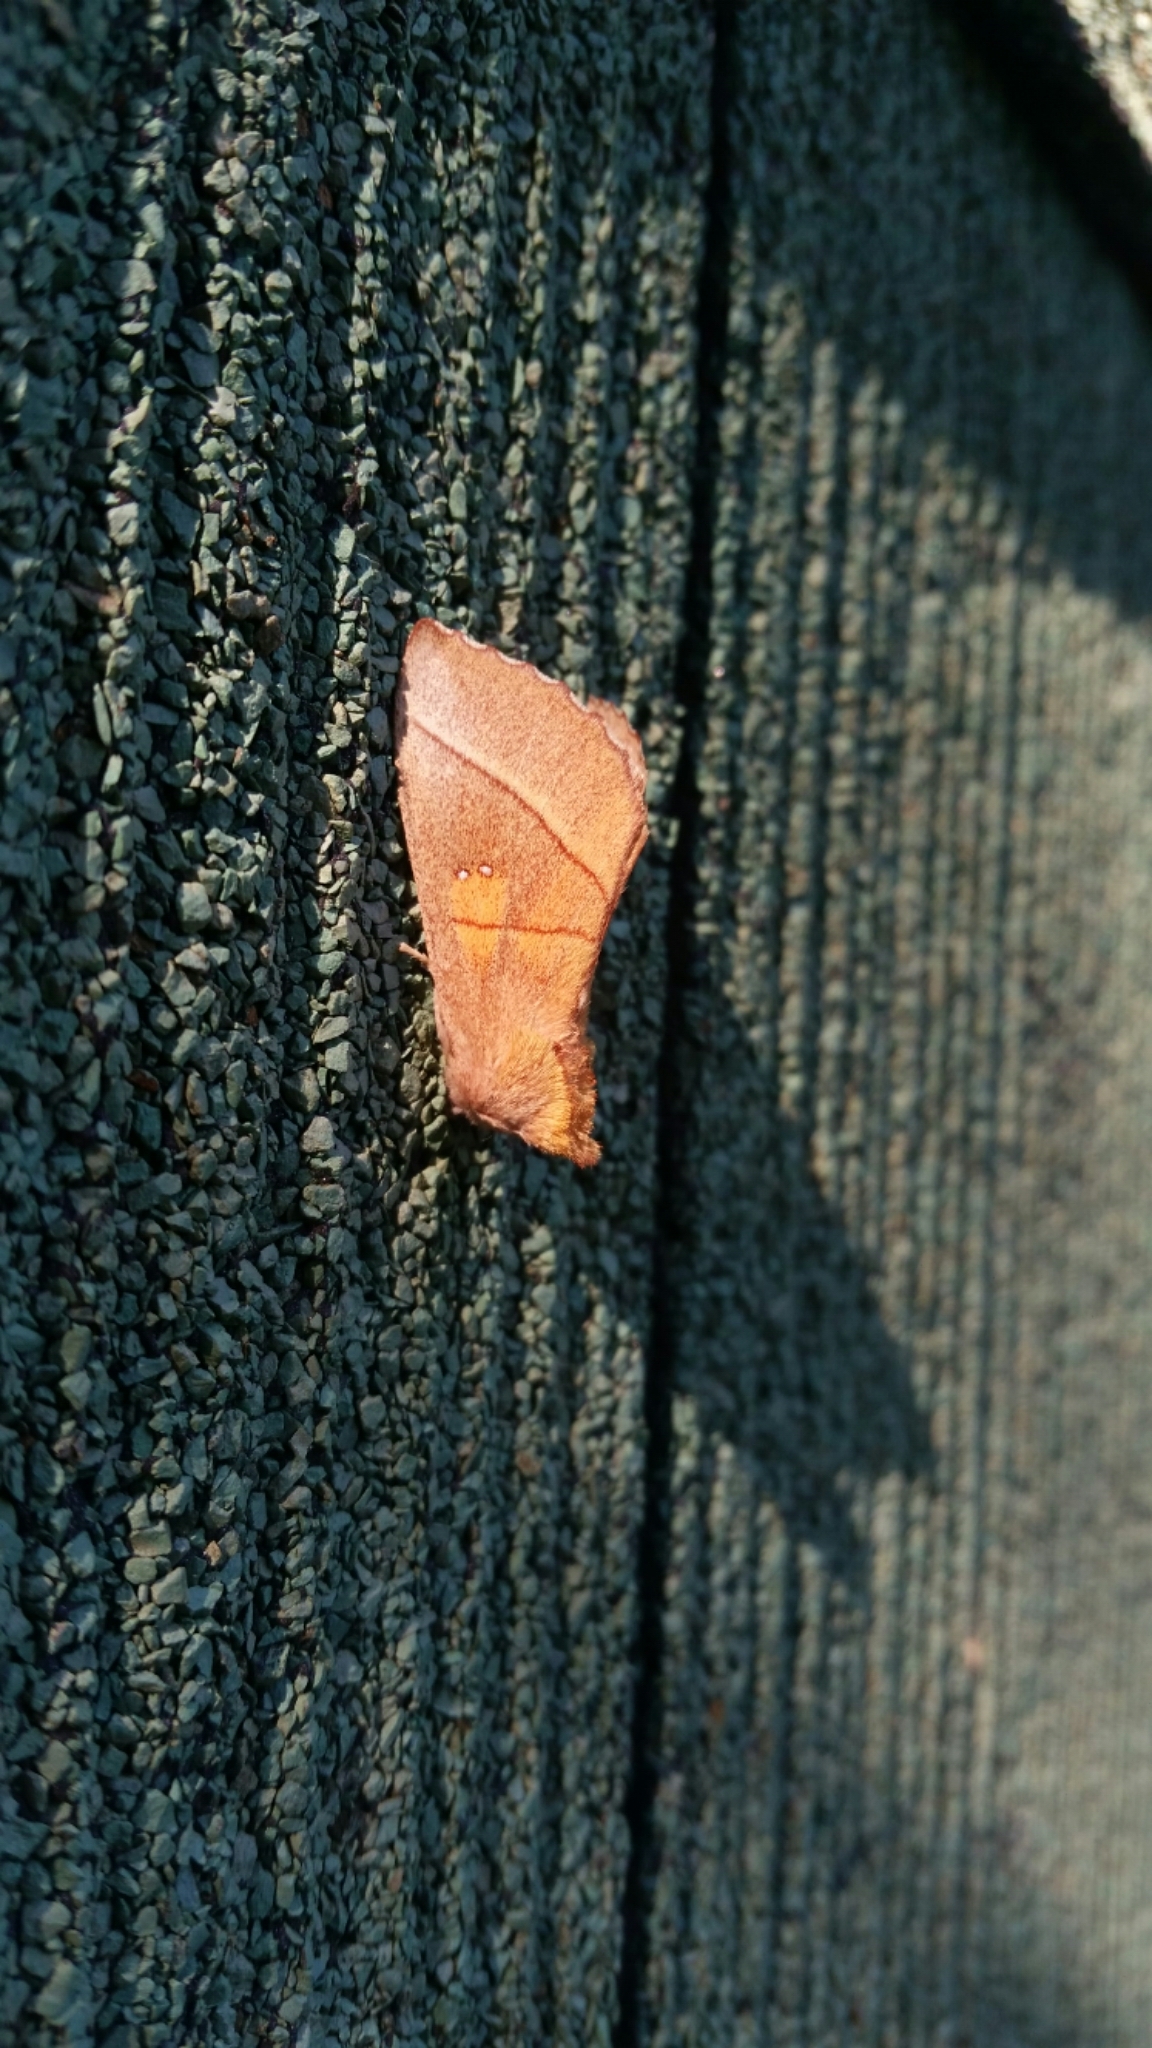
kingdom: Animalia
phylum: Arthropoda
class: Insecta
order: Lepidoptera
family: Notodontidae
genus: Nadata
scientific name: Nadata gibbosa
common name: White-dotted prominent
